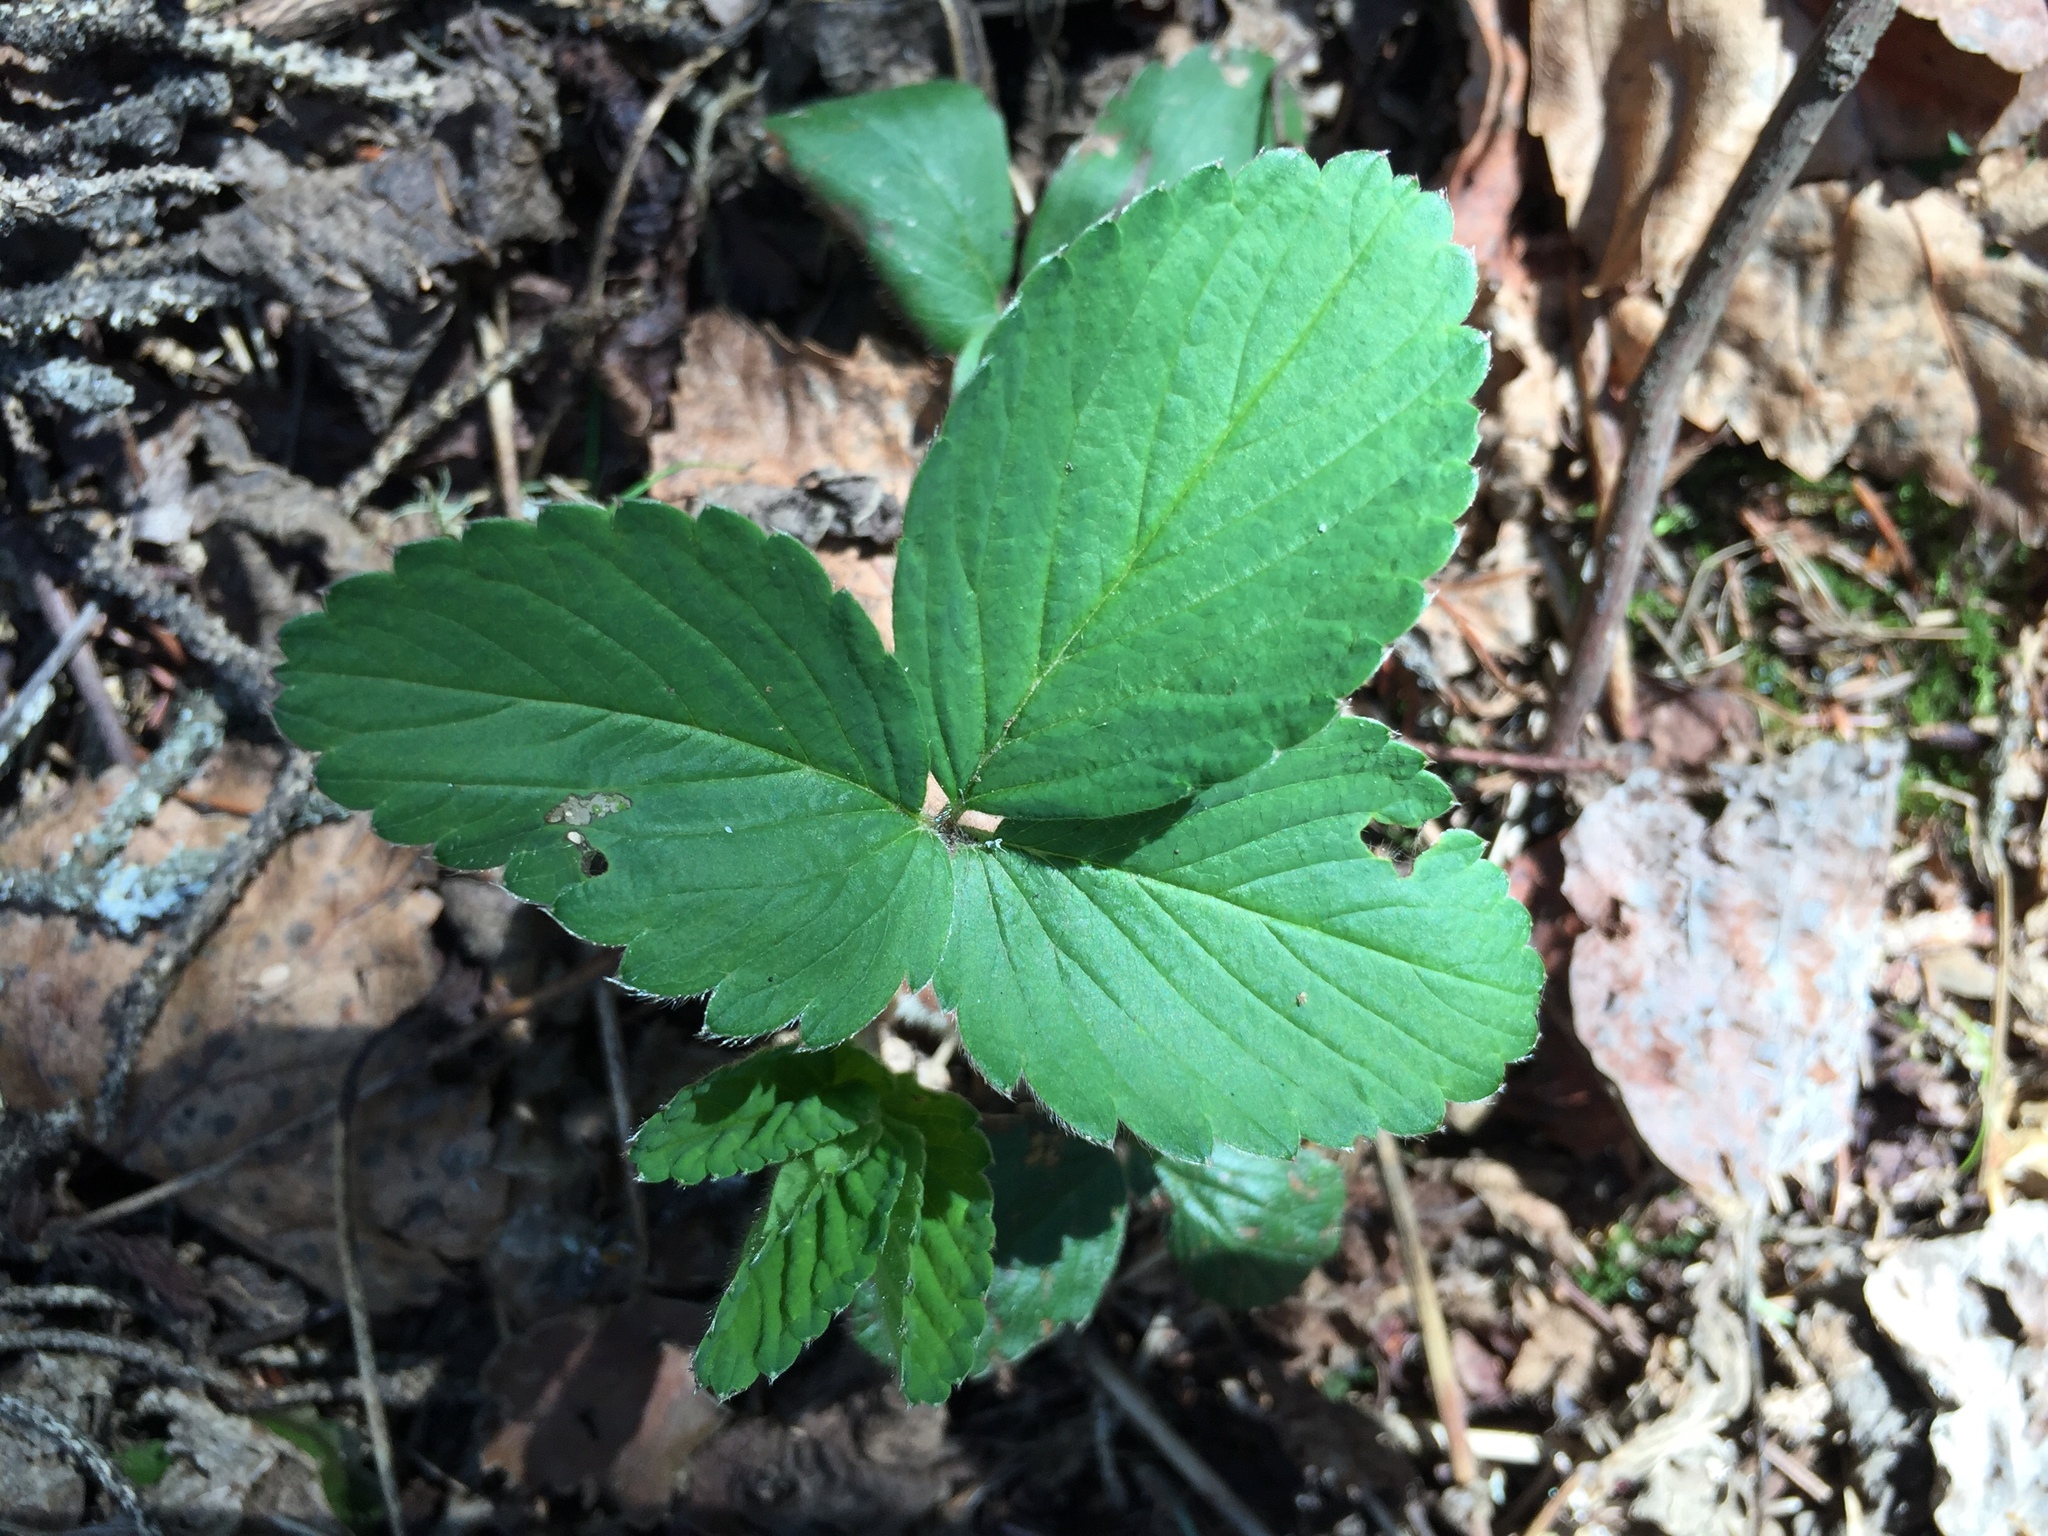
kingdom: Plantae
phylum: Tracheophyta
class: Magnoliopsida
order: Rosales
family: Rosaceae
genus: Fragaria
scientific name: Fragaria virginiana
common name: Thickleaved wild strawberry
